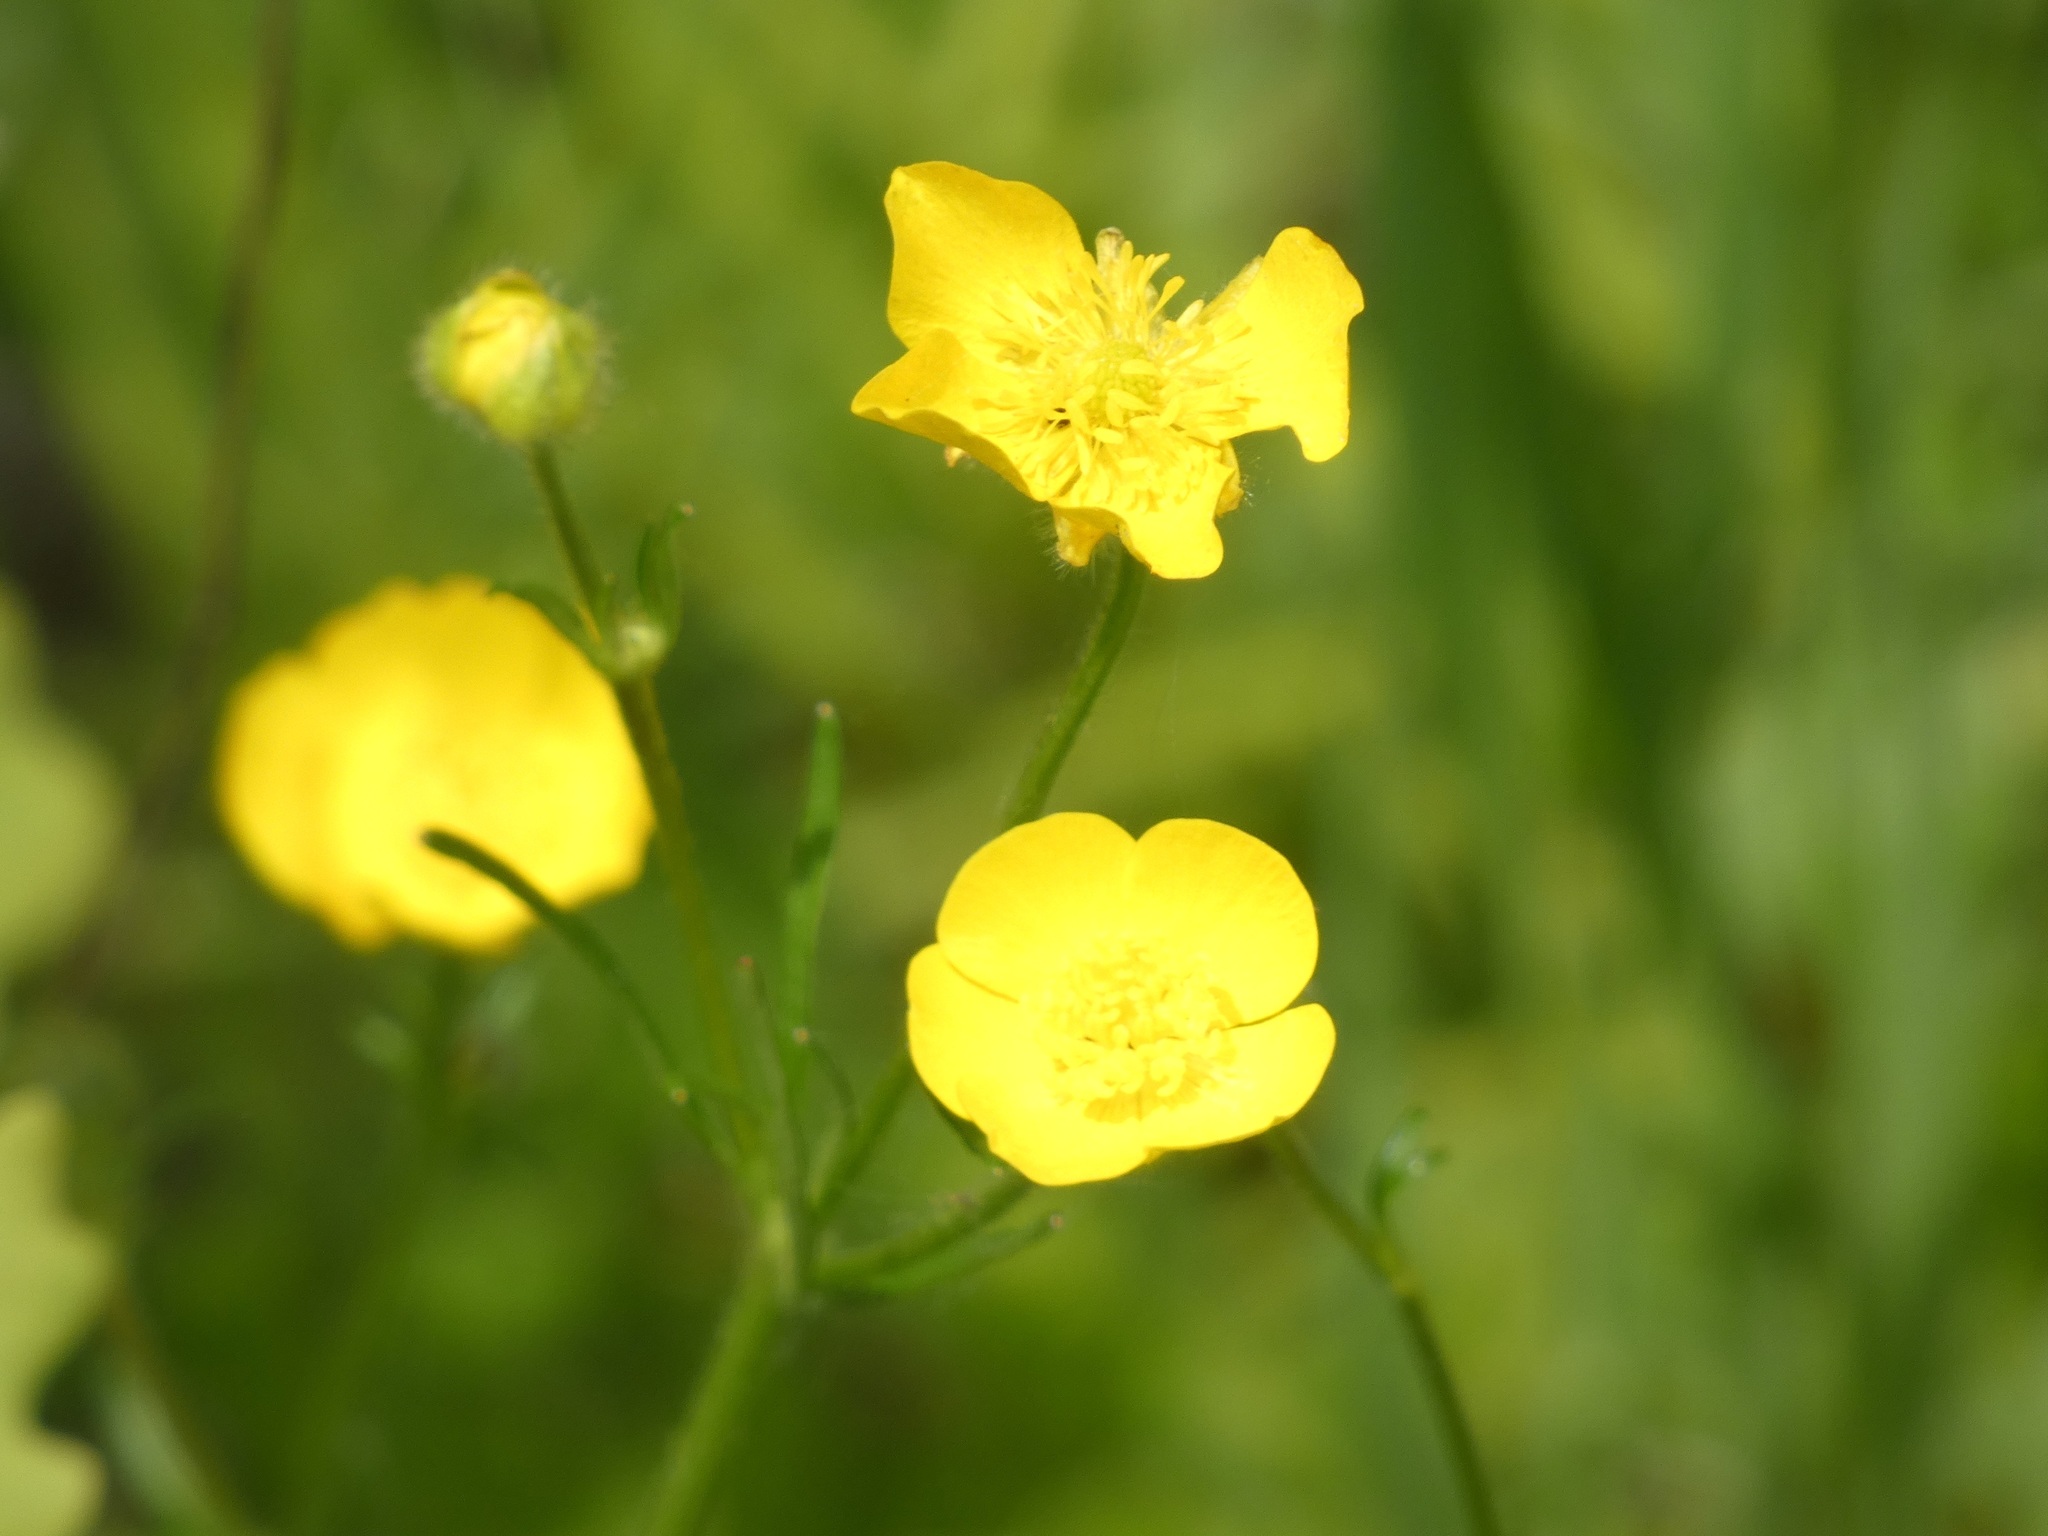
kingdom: Plantae
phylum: Tracheophyta
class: Magnoliopsida
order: Ranunculales
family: Ranunculaceae
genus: Ranunculus
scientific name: Ranunculus polyanthemos
